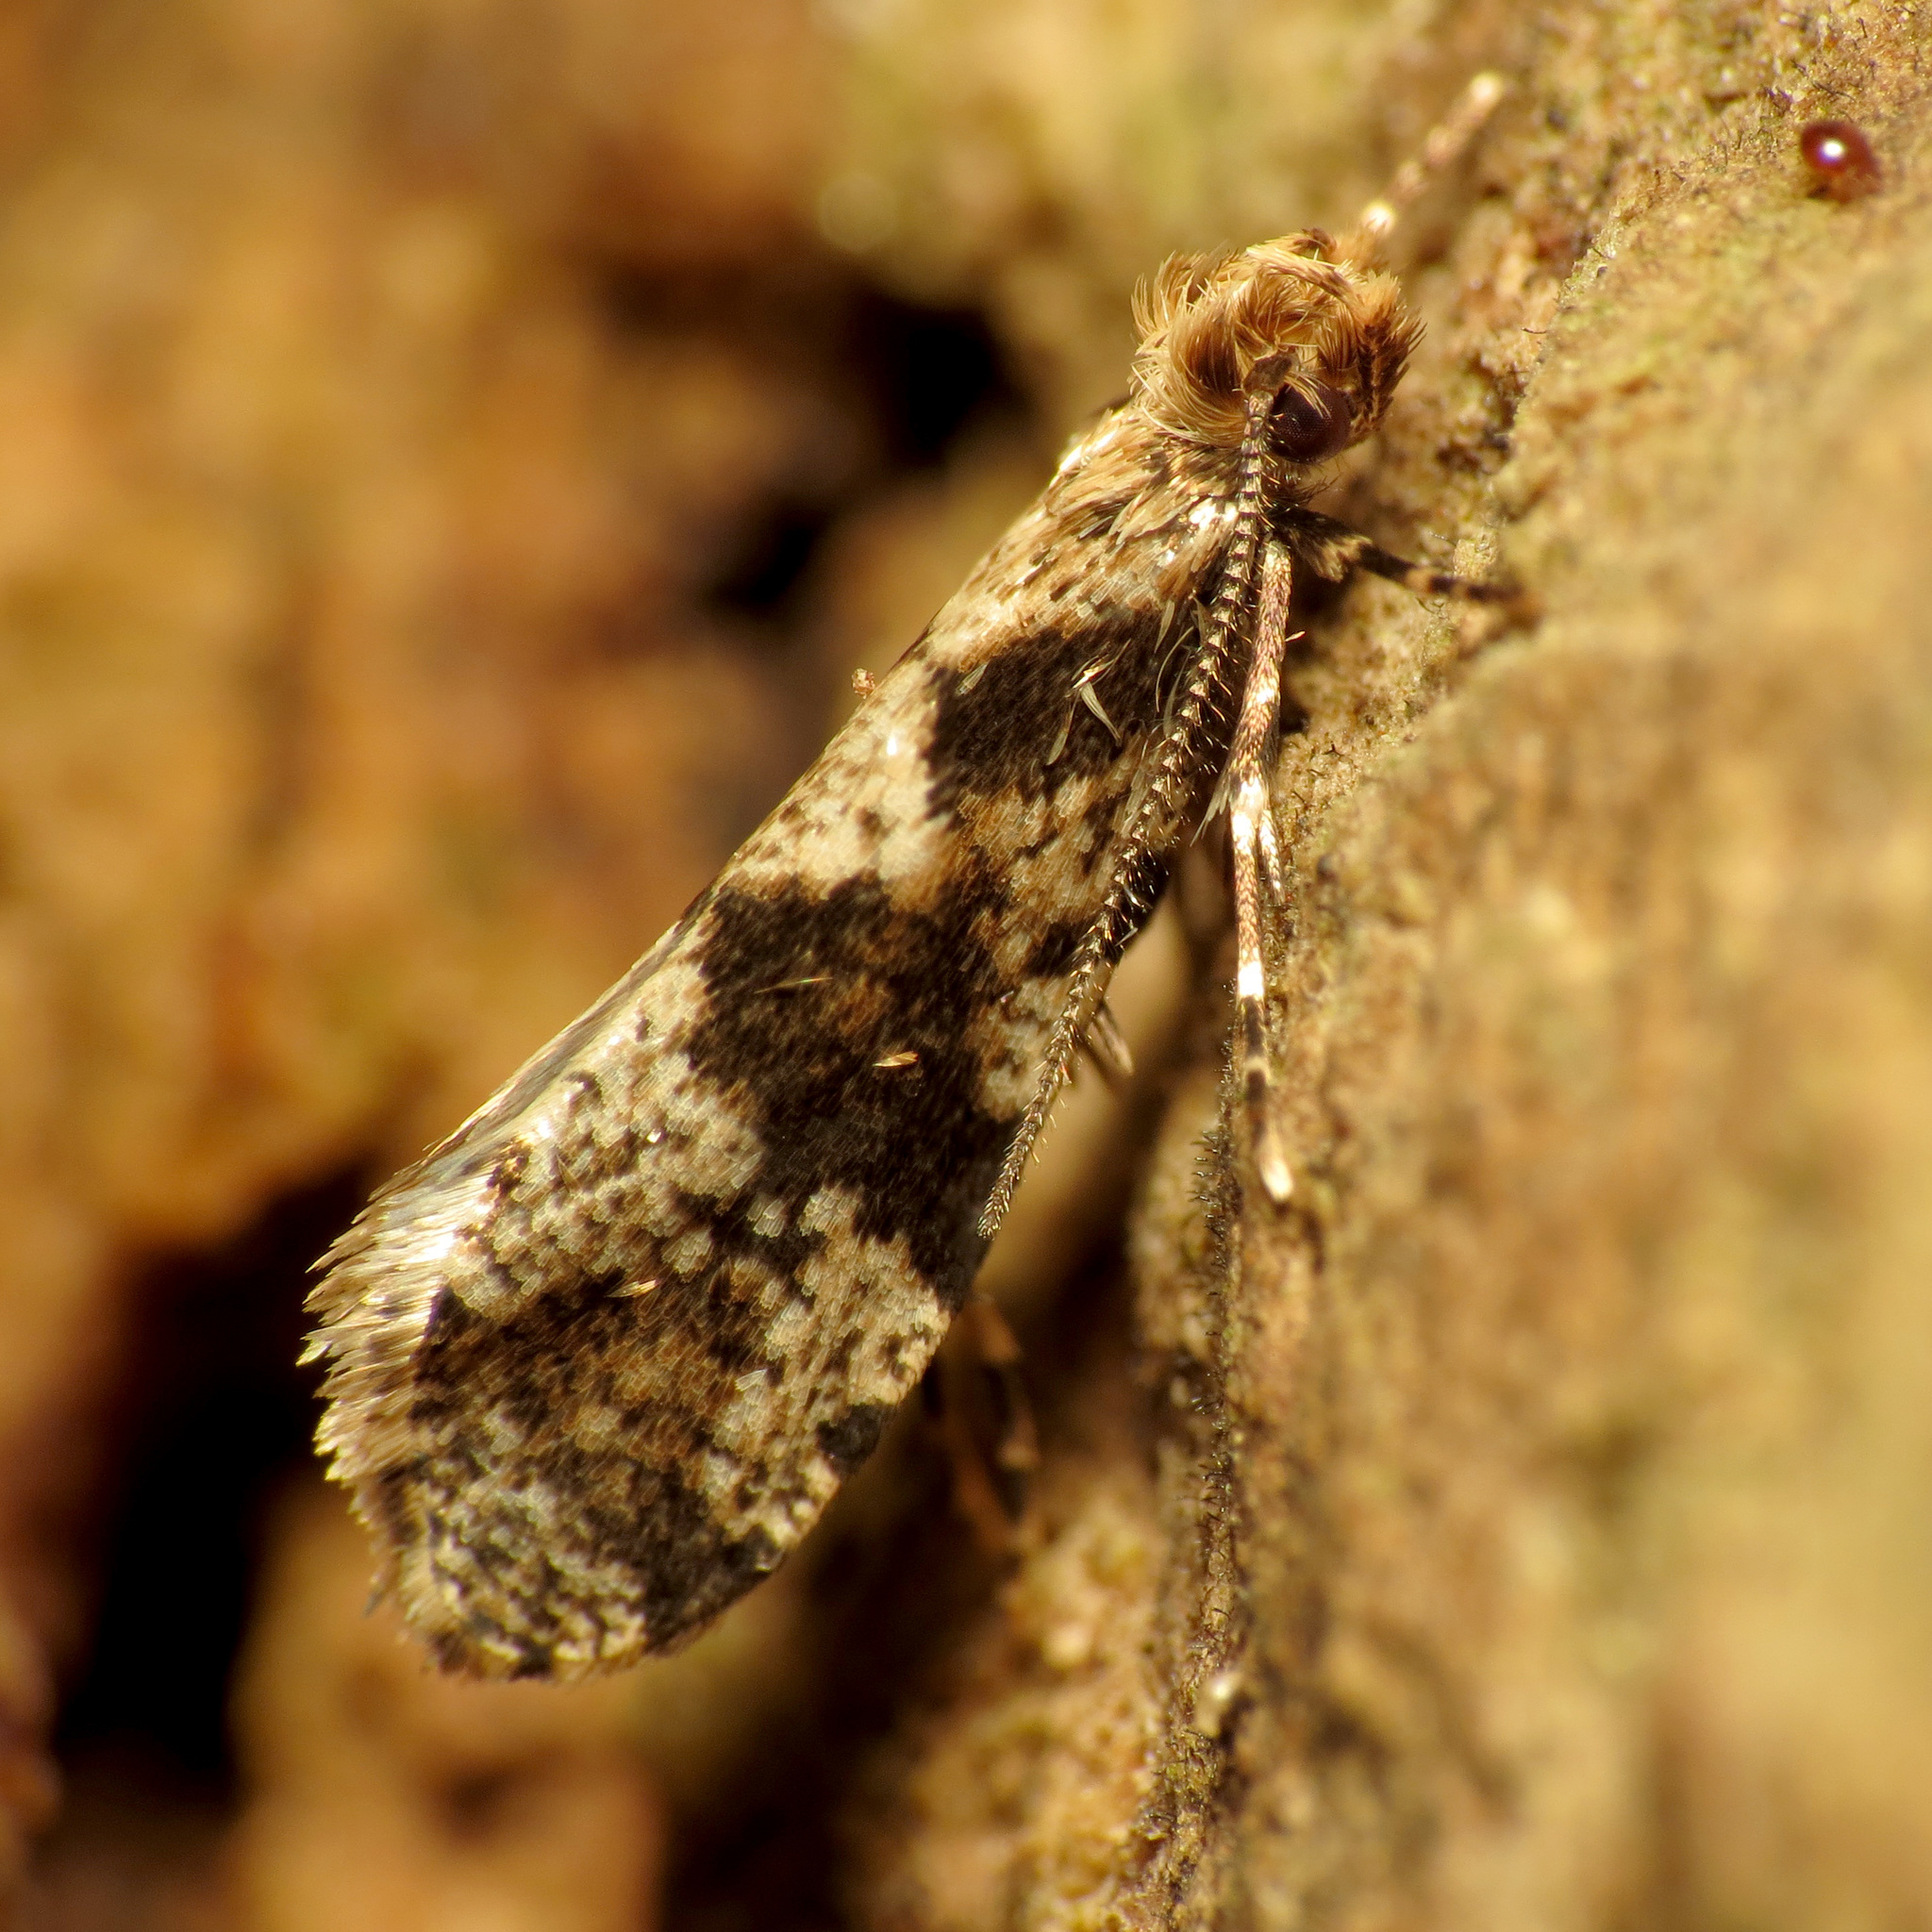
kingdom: Animalia
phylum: Arthropoda
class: Insecta
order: Lepidoptera
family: Tineidae
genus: Scardiella
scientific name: Scardiella approximatella
